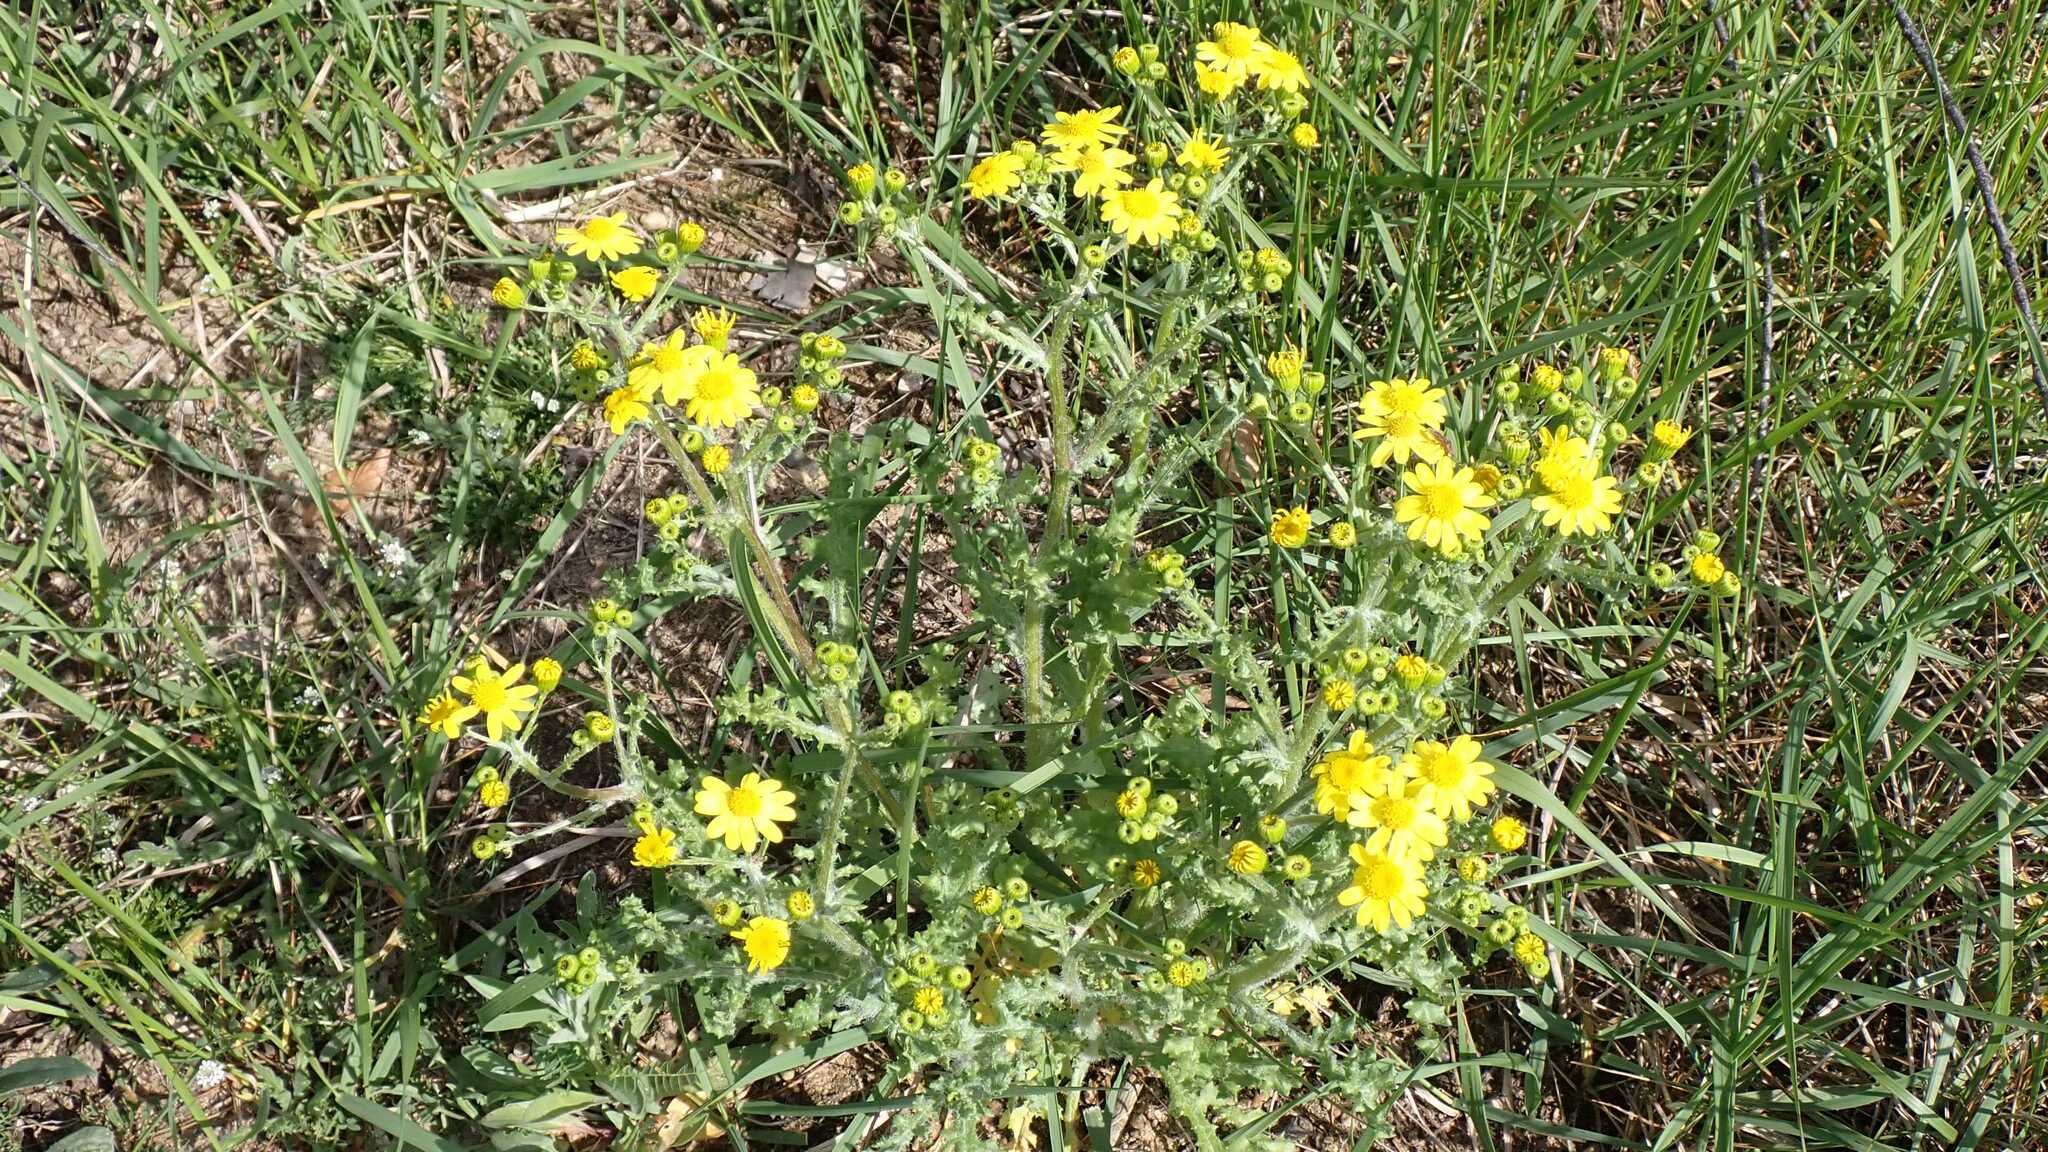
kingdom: Plantae
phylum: Tracheophyta
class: Magnoliopsida
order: Asterales
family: Asteraceae
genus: Senecio
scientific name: Senecio vernalis
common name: Eastern groundsel
